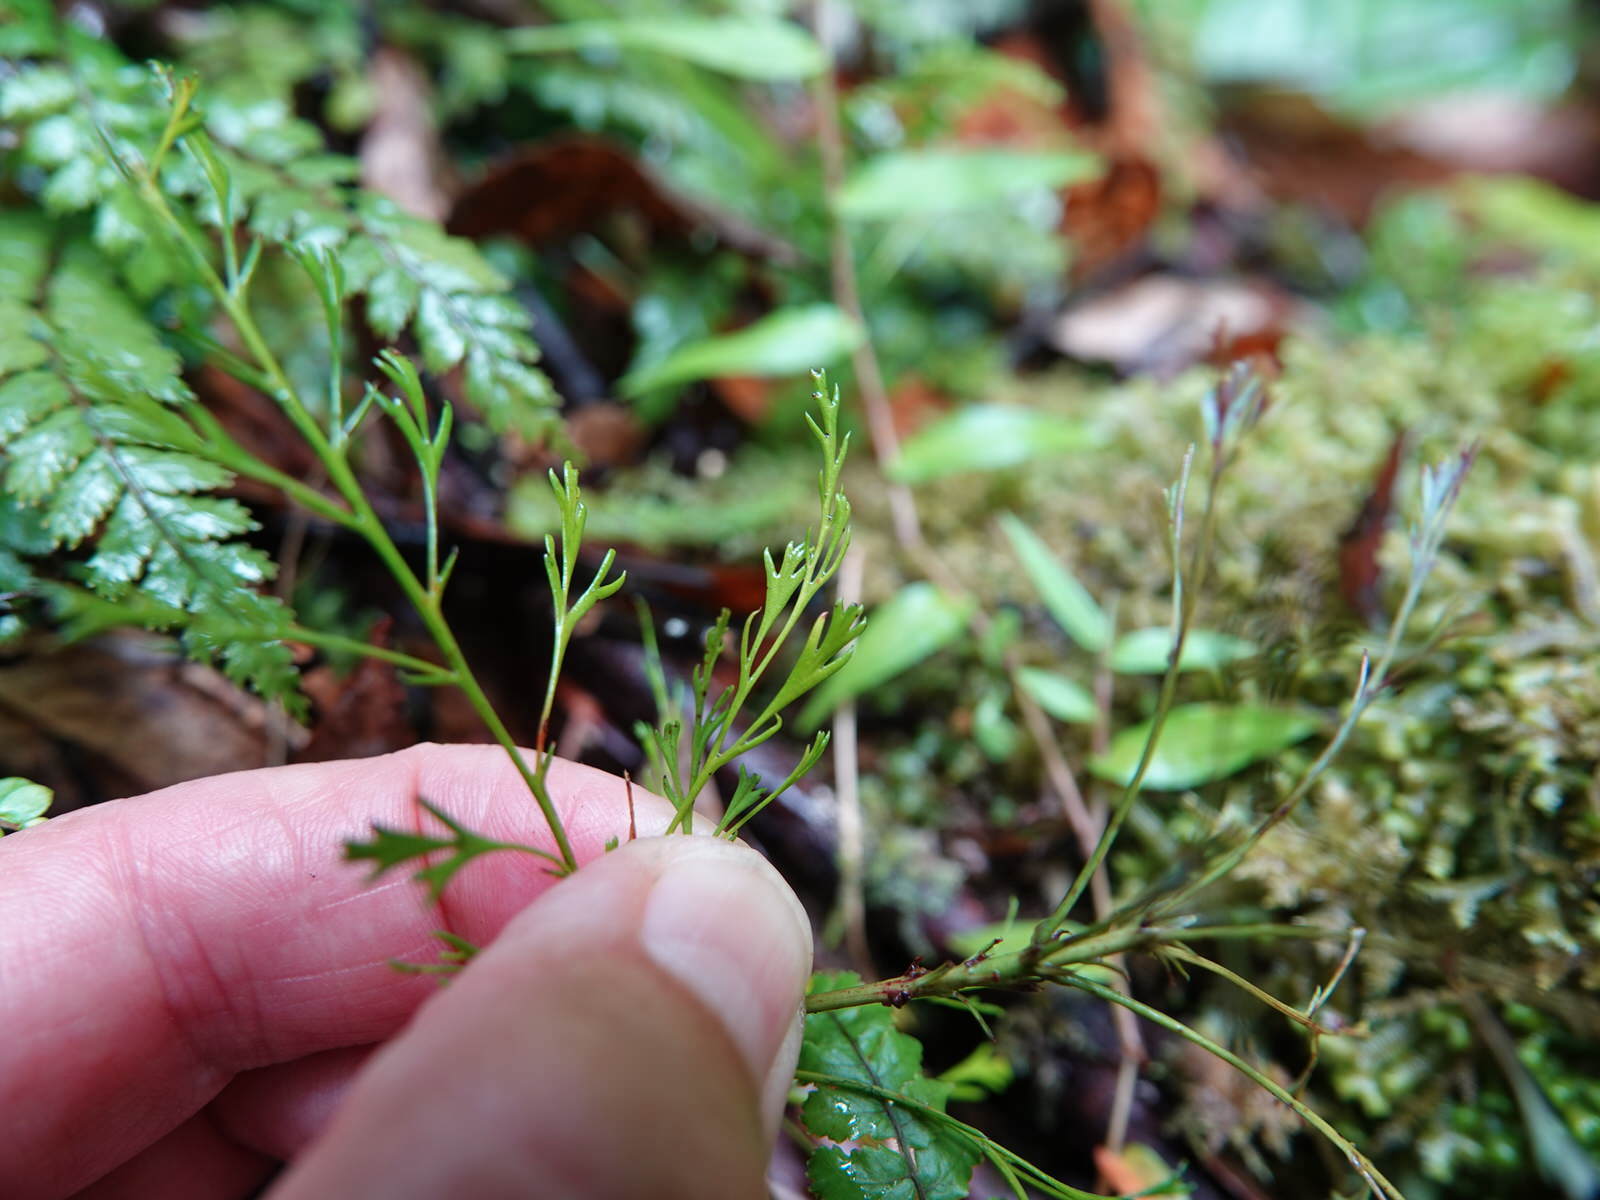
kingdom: Plantae
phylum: Tracheophyta
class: Pinopsida
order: Pinales
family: Phyllocladaceae
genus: Phyllocladus
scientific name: Phyllocladus trichomanoides
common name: Celery pine
